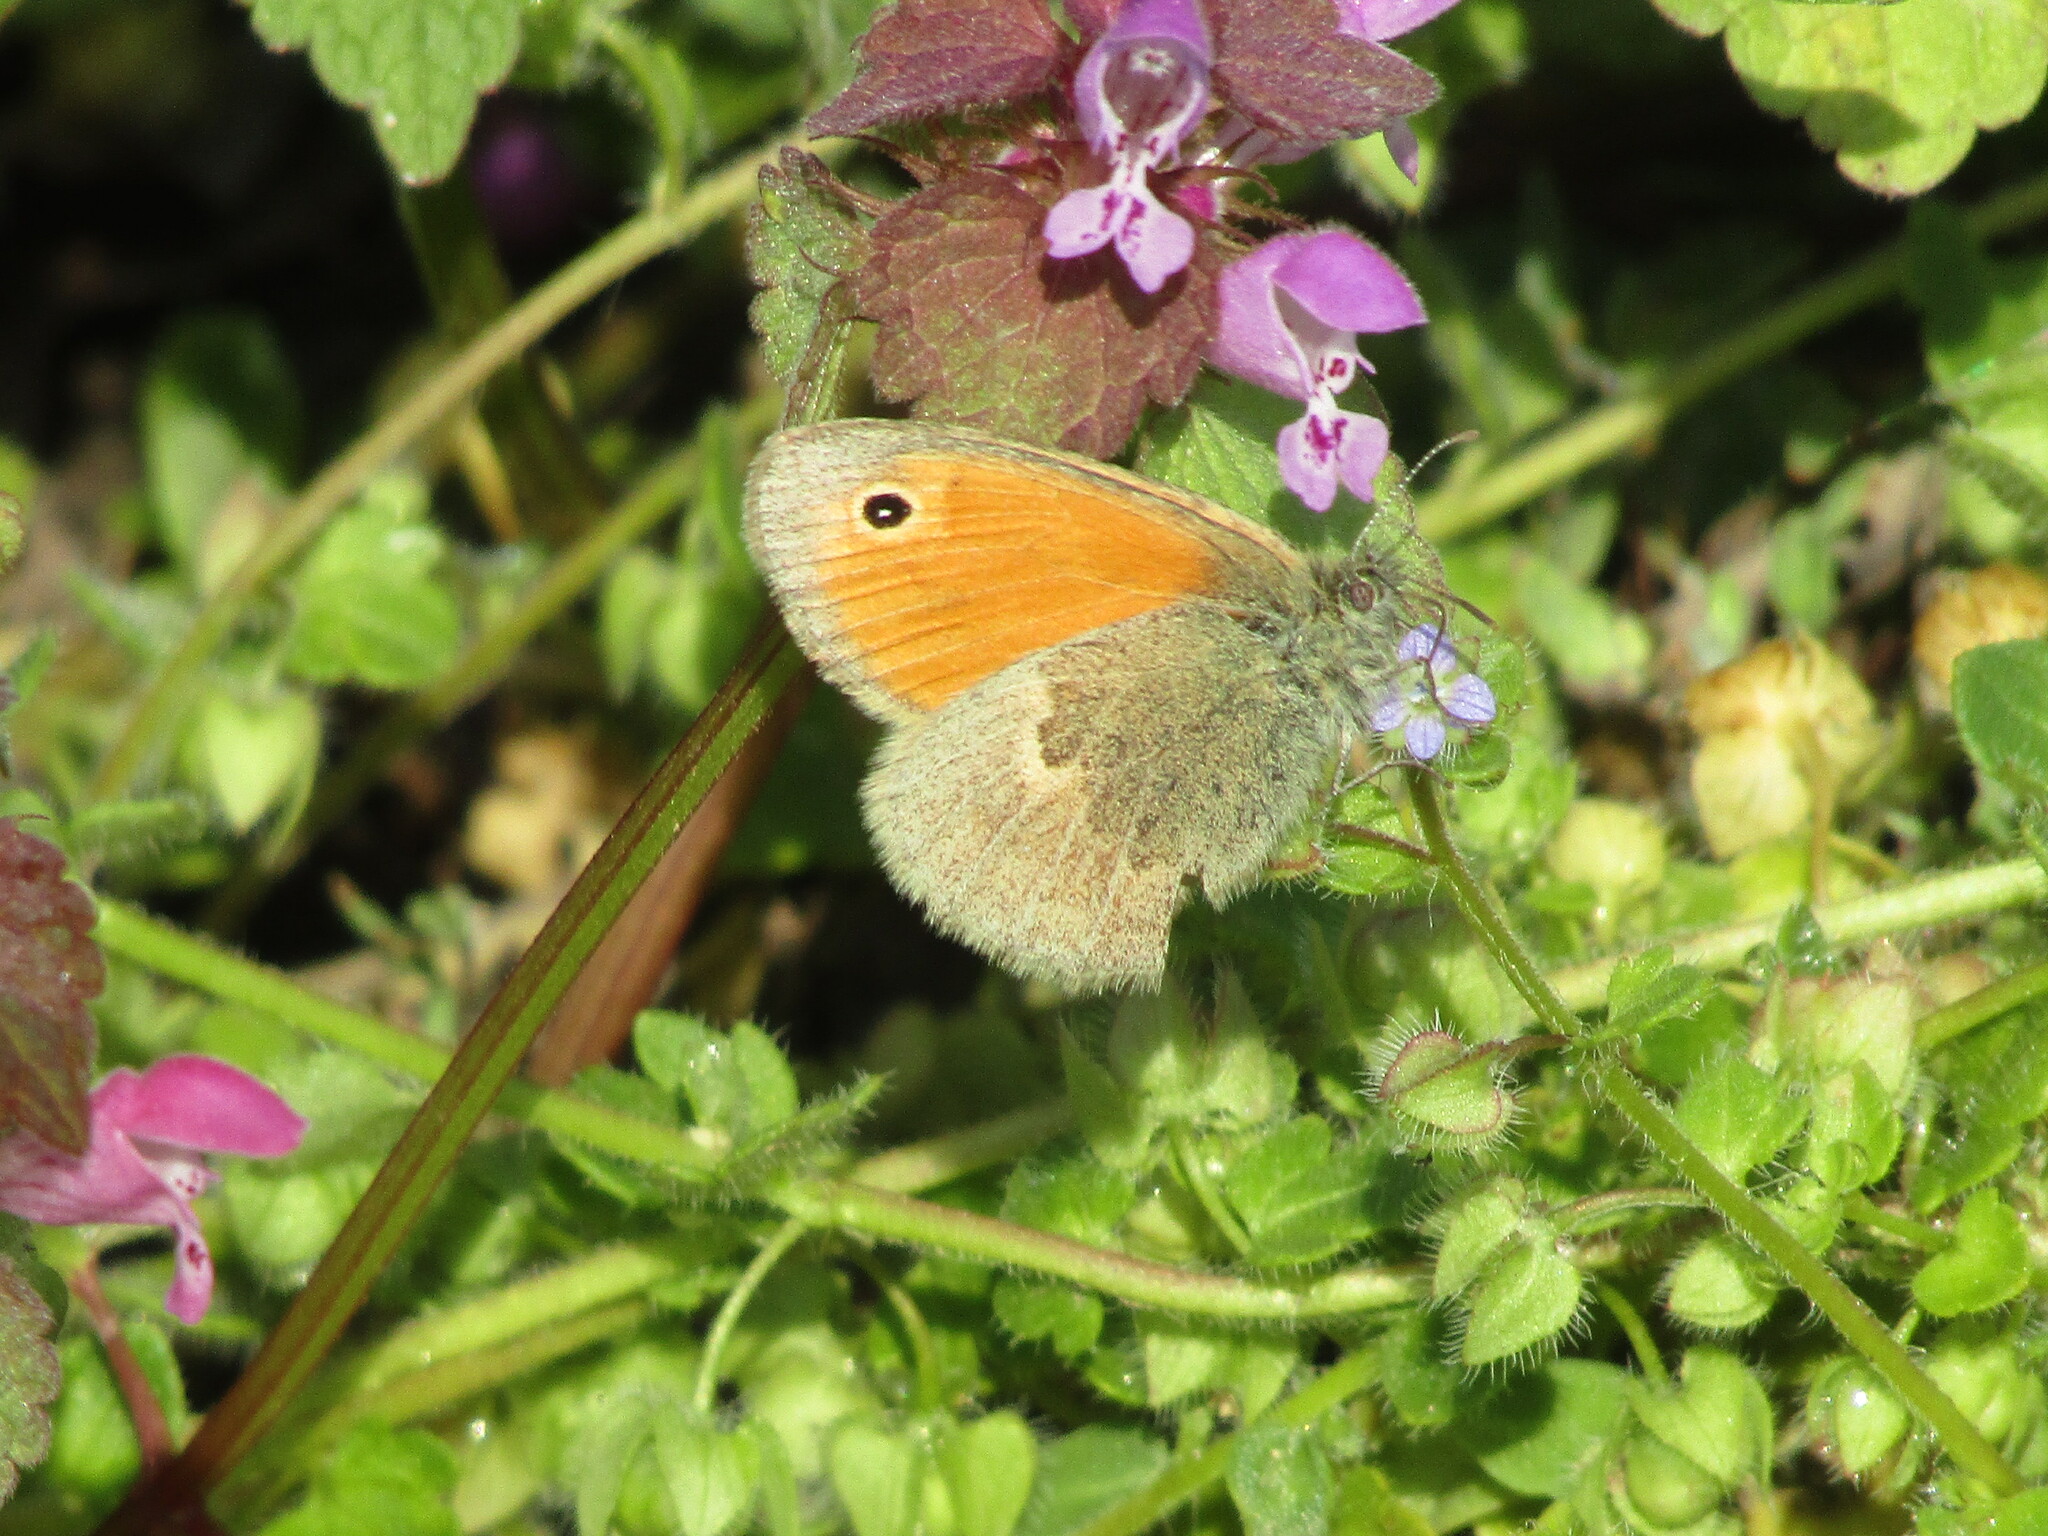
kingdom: Animalia
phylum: Arthropoda
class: Insecta
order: Lepidoptera
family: Nymphalidae
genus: Coenonympha
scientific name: Coenonympha pamphilus
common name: Small heath
